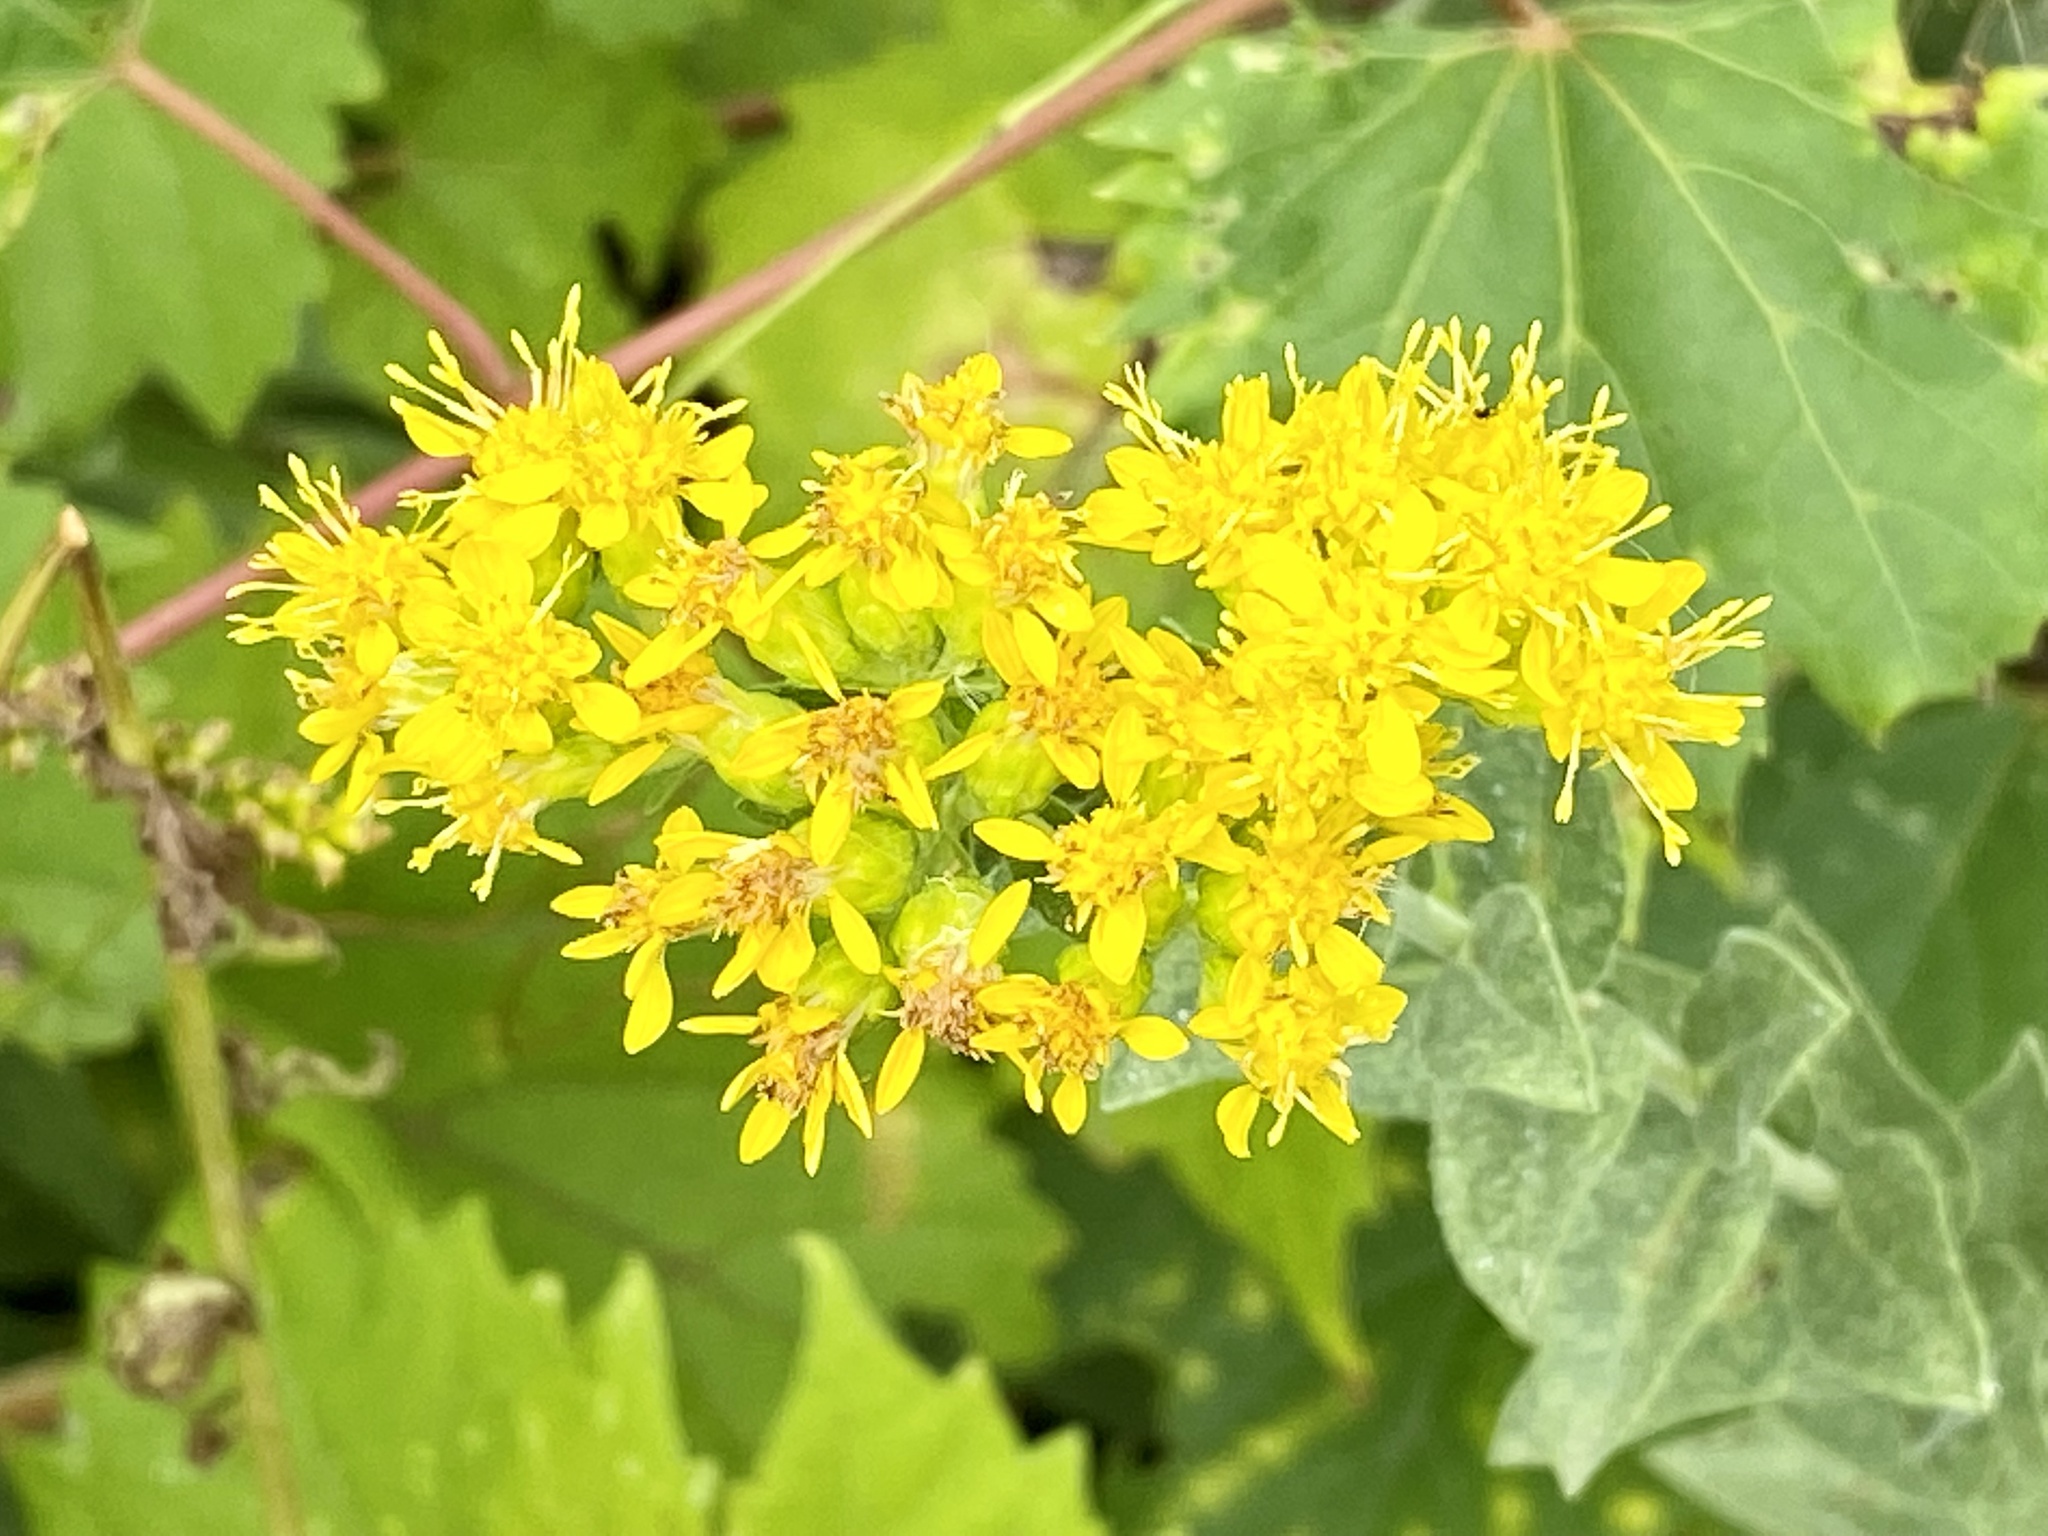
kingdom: Plantae
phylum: Tracheophyta
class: Magnoliopsida
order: Asterales
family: Asteraceae
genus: Solidago
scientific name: Solidago rigida
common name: Rigid goldenrod
